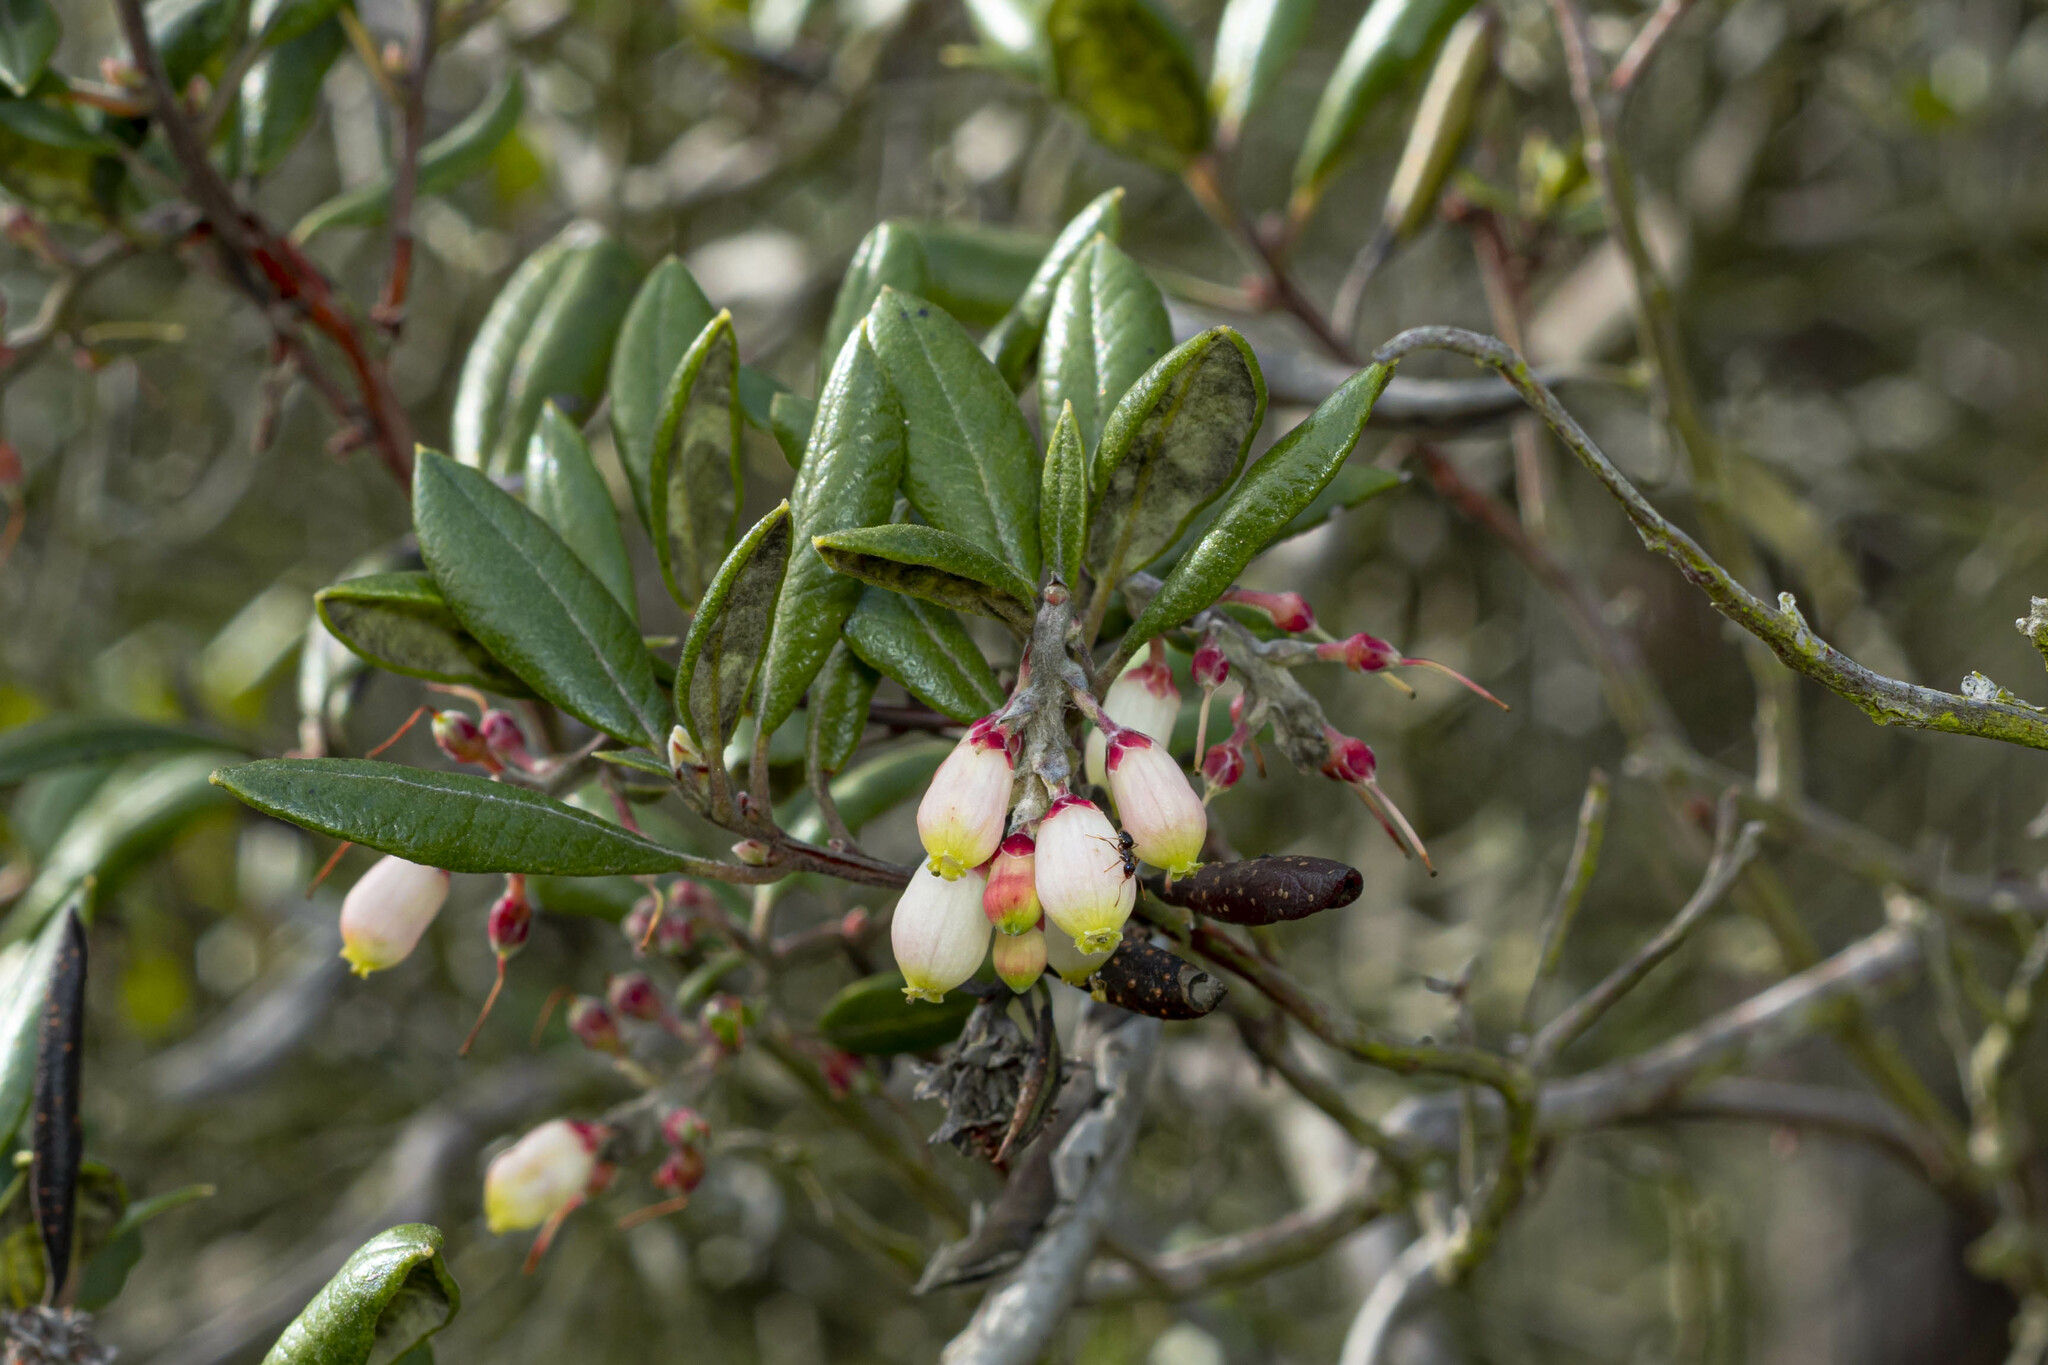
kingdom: Plantae
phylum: Tracheophyta
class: Magnoliopsida
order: Ericales
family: Ericaceae
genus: Arctostaphylos
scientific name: Arctostaphylos bicolor
